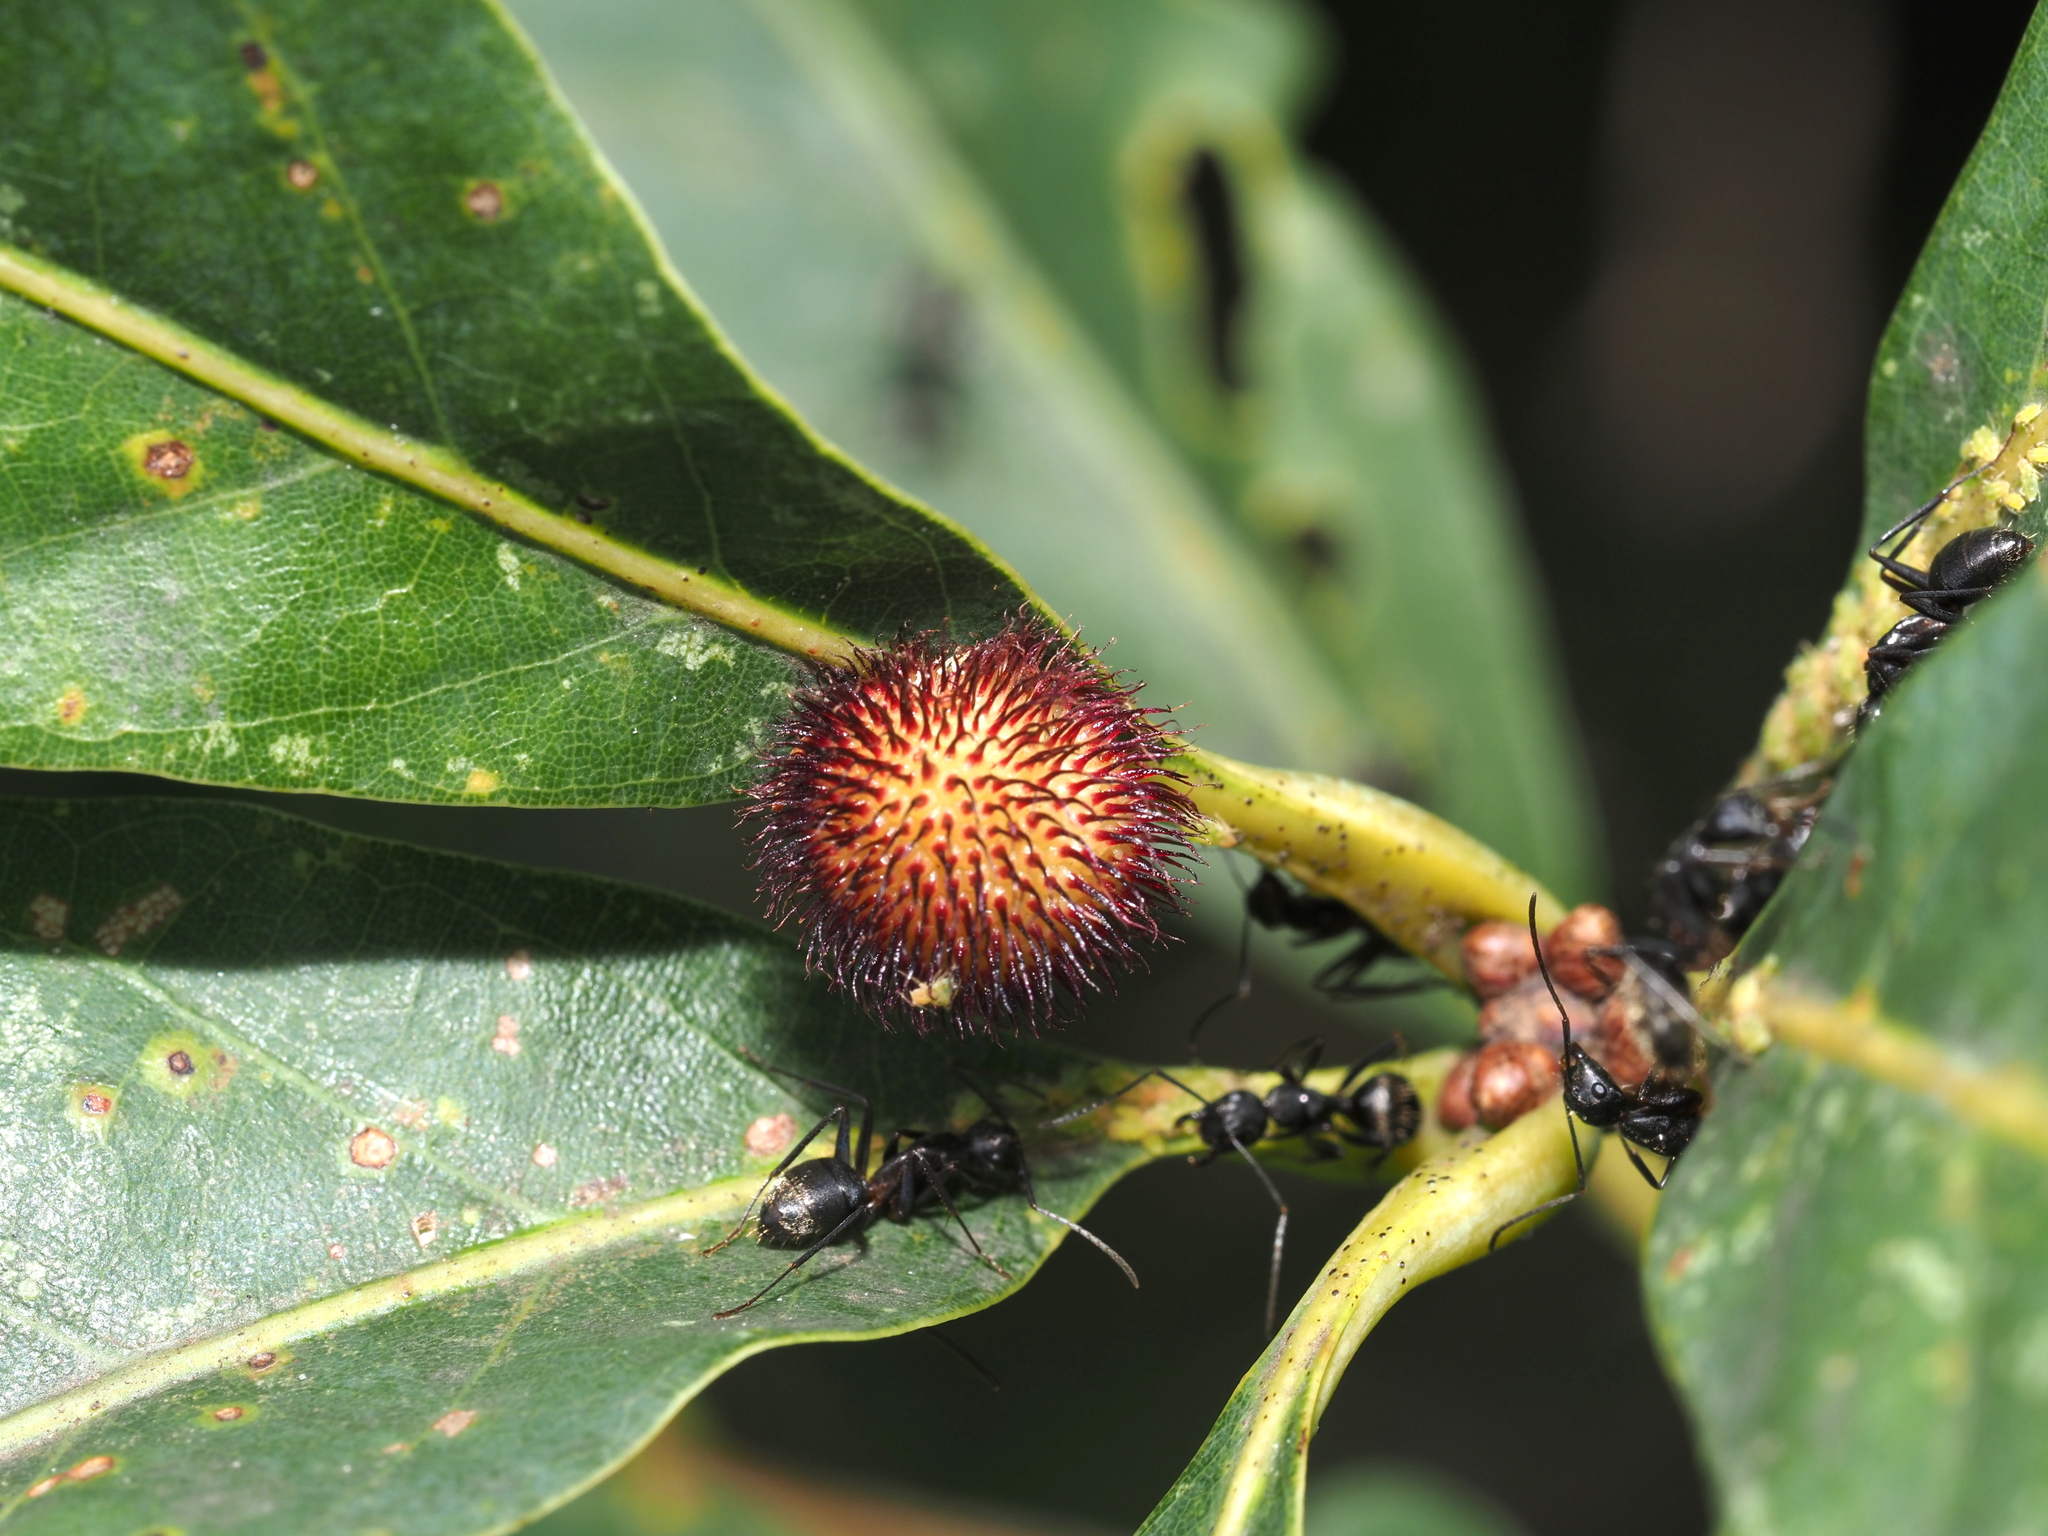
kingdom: Animalia
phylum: Arthropoda
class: Insecta
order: Hymenoptera
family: Cynipidae
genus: Acraspis
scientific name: Acraspis erinacei
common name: Hedgehog gall wasp
